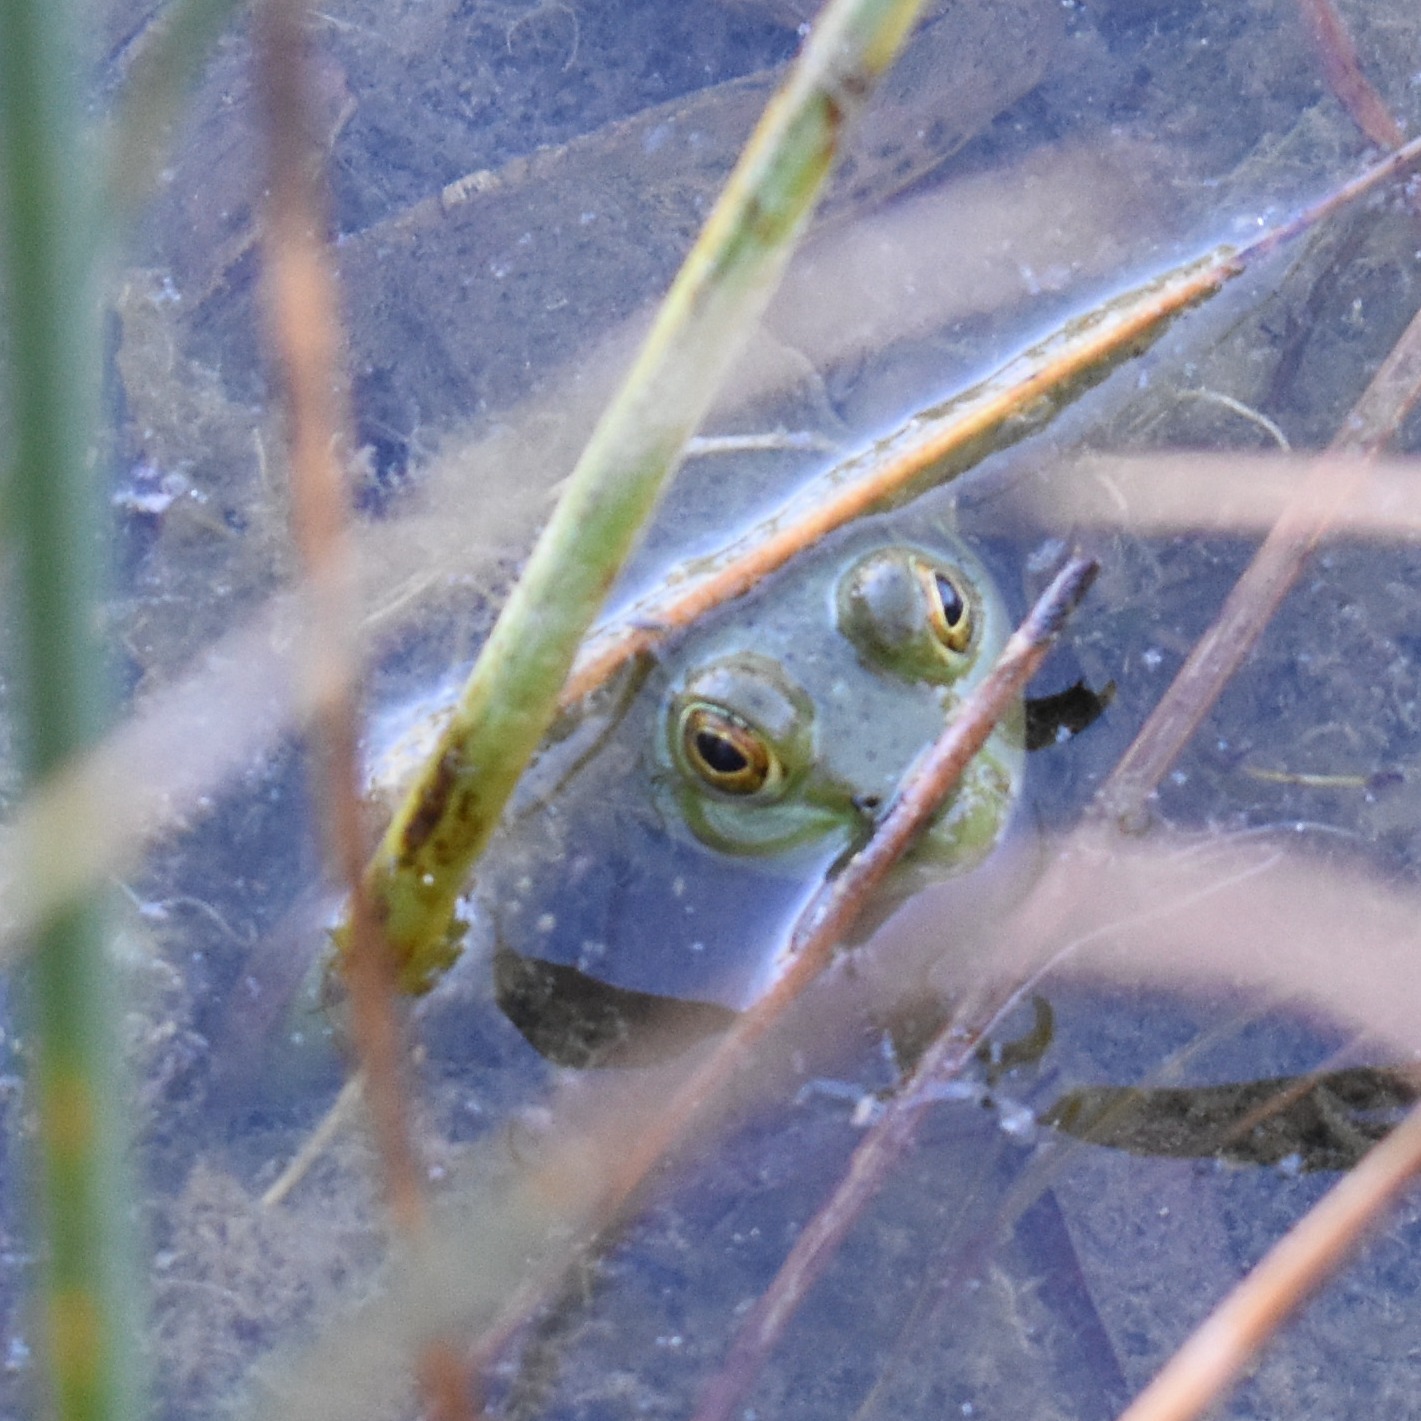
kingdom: Animalia
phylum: Chordata
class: Amphibia
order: Anura
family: Ranidae
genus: Lithobates
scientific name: Lithobates catesbeianus
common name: American bullfrog
